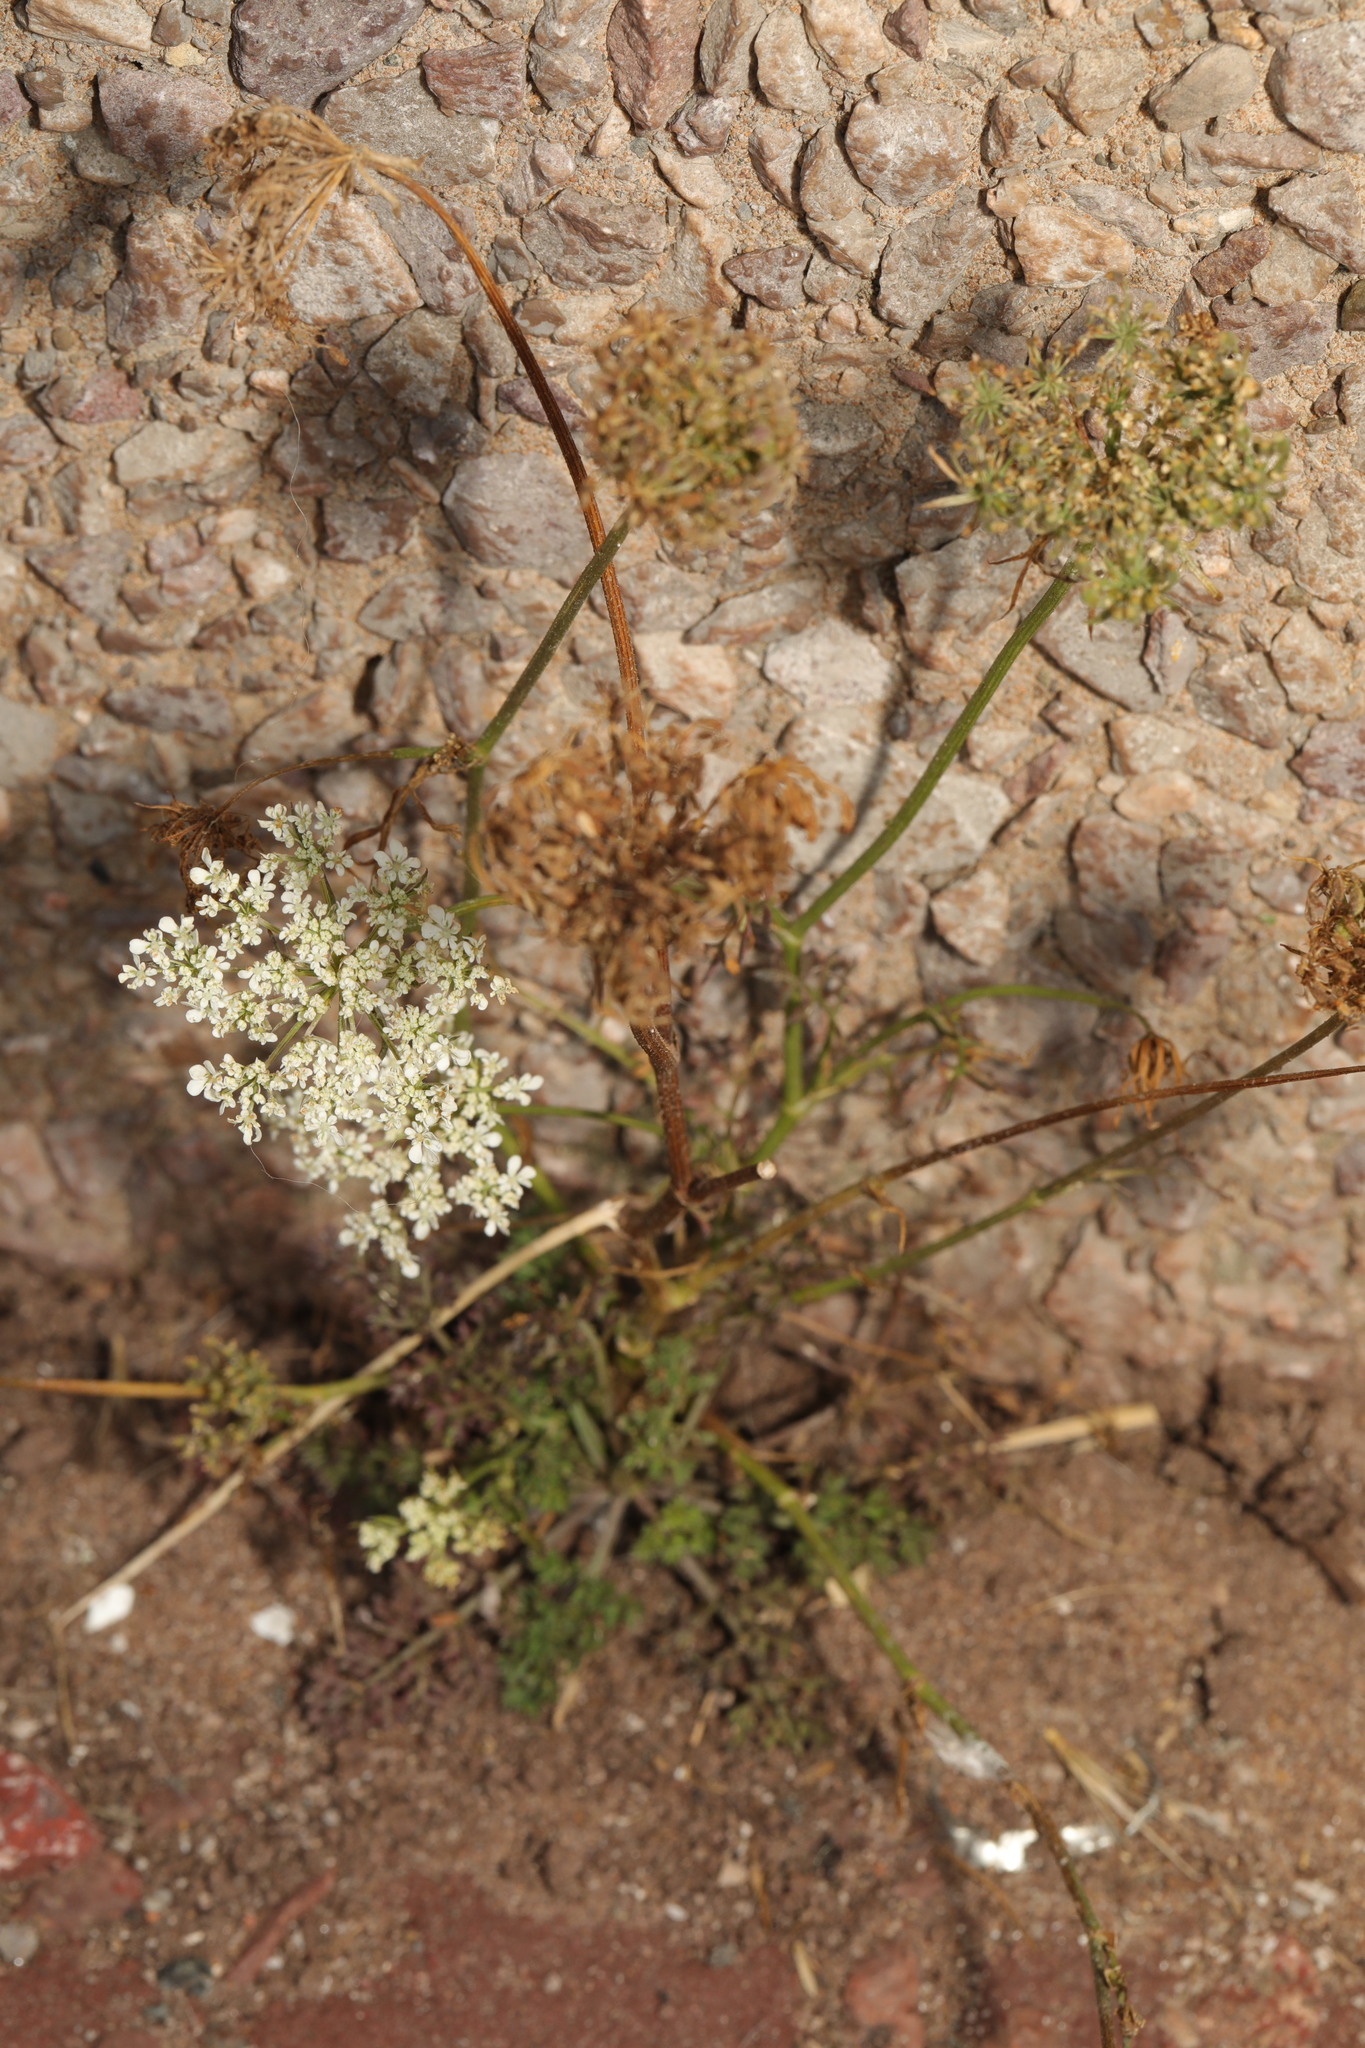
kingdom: Plantae
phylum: Tracheophyta
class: Magnoliopsida
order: Apiales
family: Apiaceae
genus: Daucus
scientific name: Daucus carota
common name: Wild carrot
